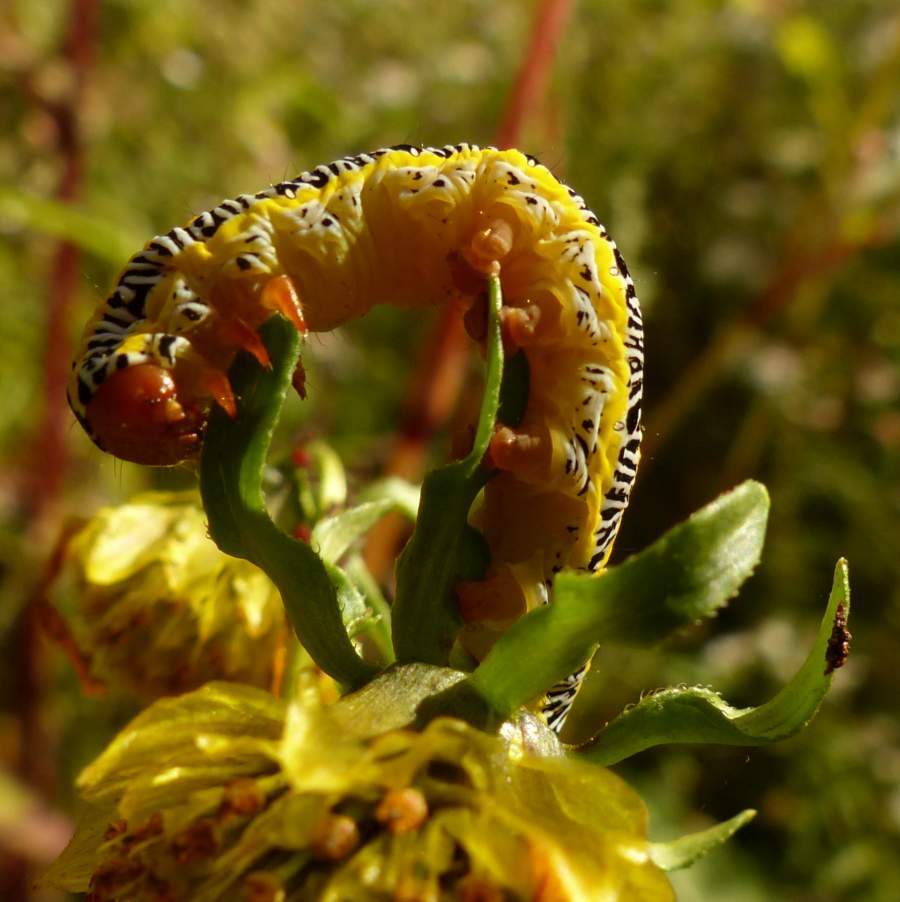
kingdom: Animalia
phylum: Arthropoda
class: Insecta
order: Lepidoptera
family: Noctuidae
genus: Melanchra
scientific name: Melanchra picta
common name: Zebra caterpillar
